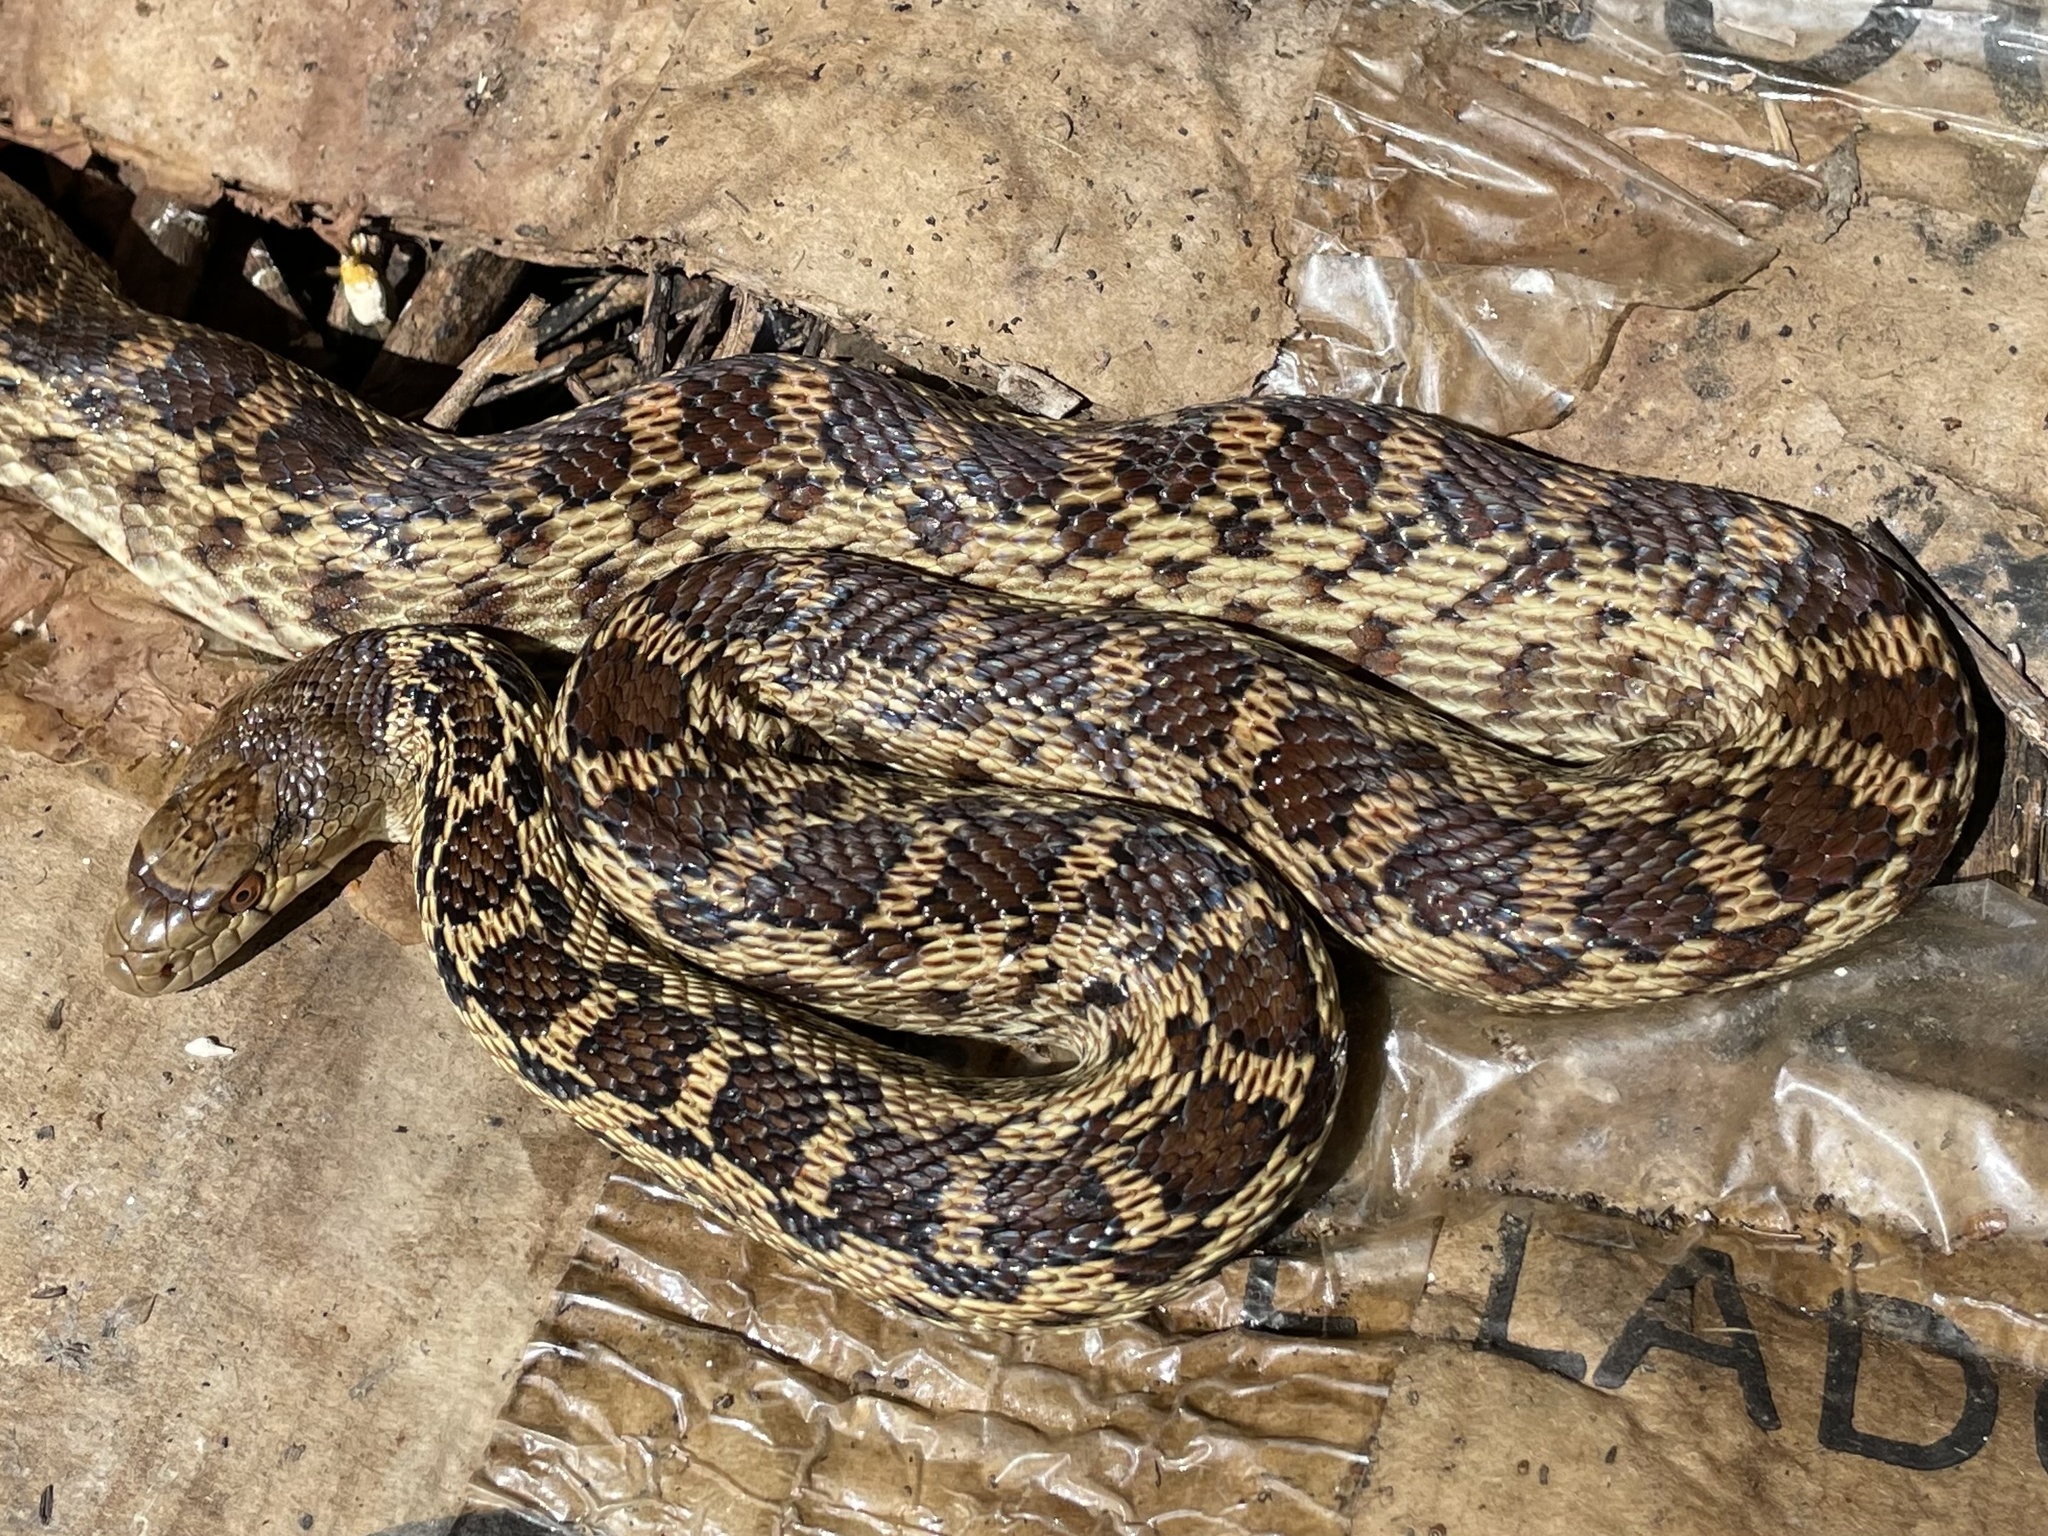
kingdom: Animalia
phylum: Chordata
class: Squamata
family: Colubridae
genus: Pituophis
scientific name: Pituophis catenifer
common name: Gopher snake
